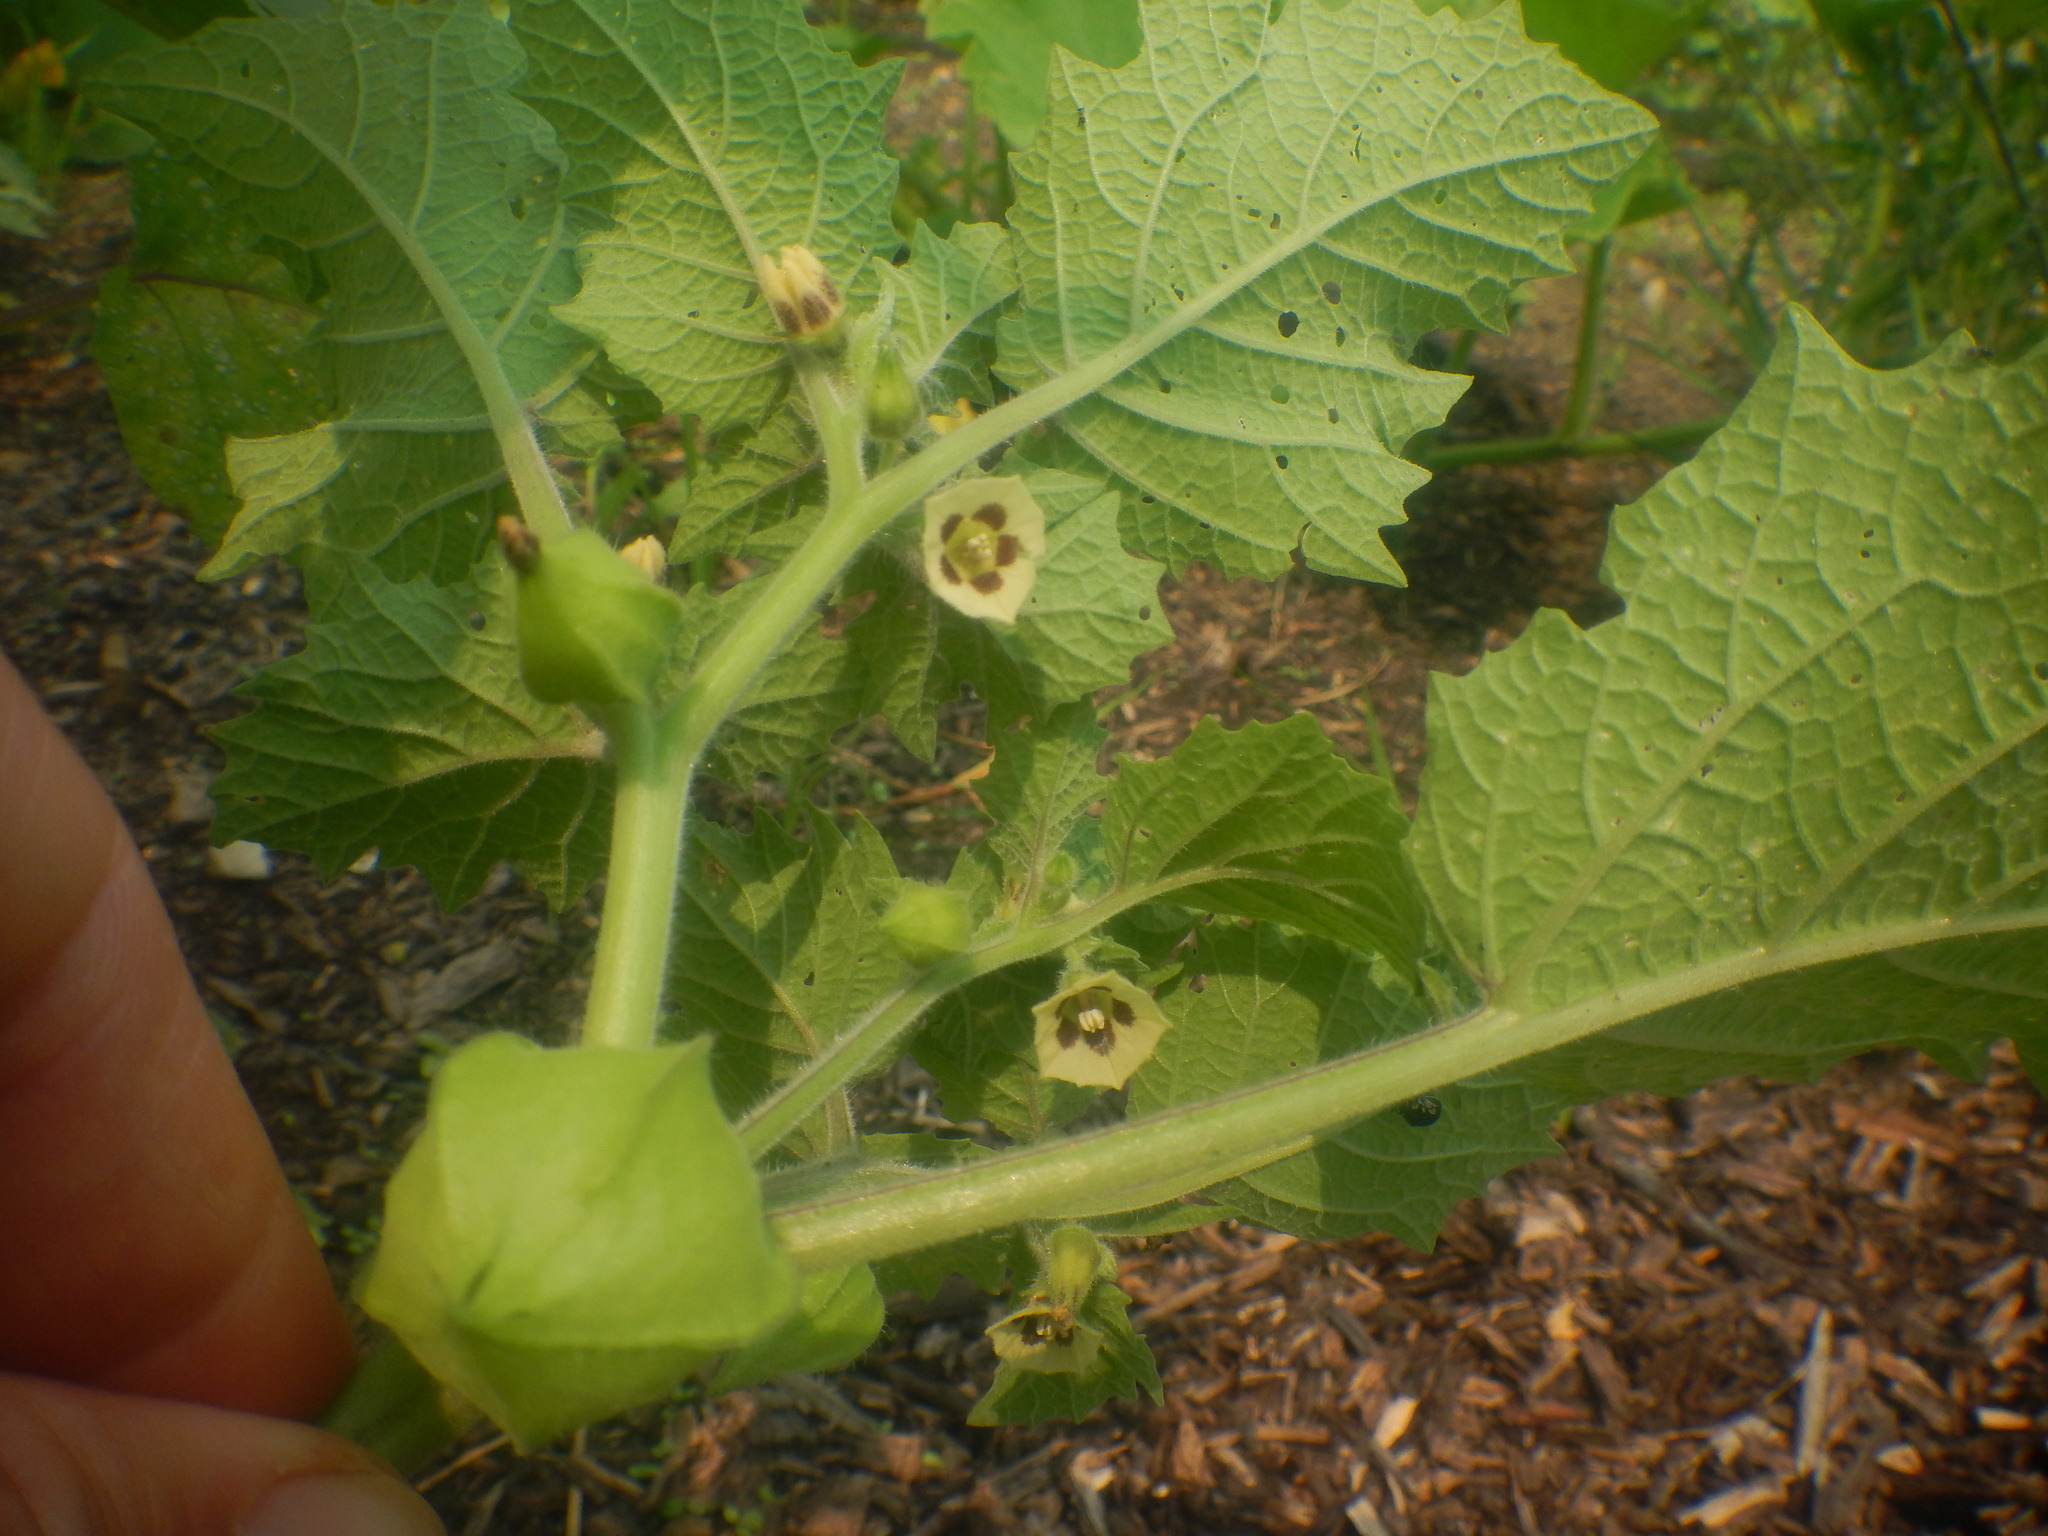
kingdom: Plantae
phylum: Tracheophyta
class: Magnoliopsida
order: Solanales
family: Solanaceae
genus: Physalis
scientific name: Physalis grisea
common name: Dwarf cape-gooseberry
